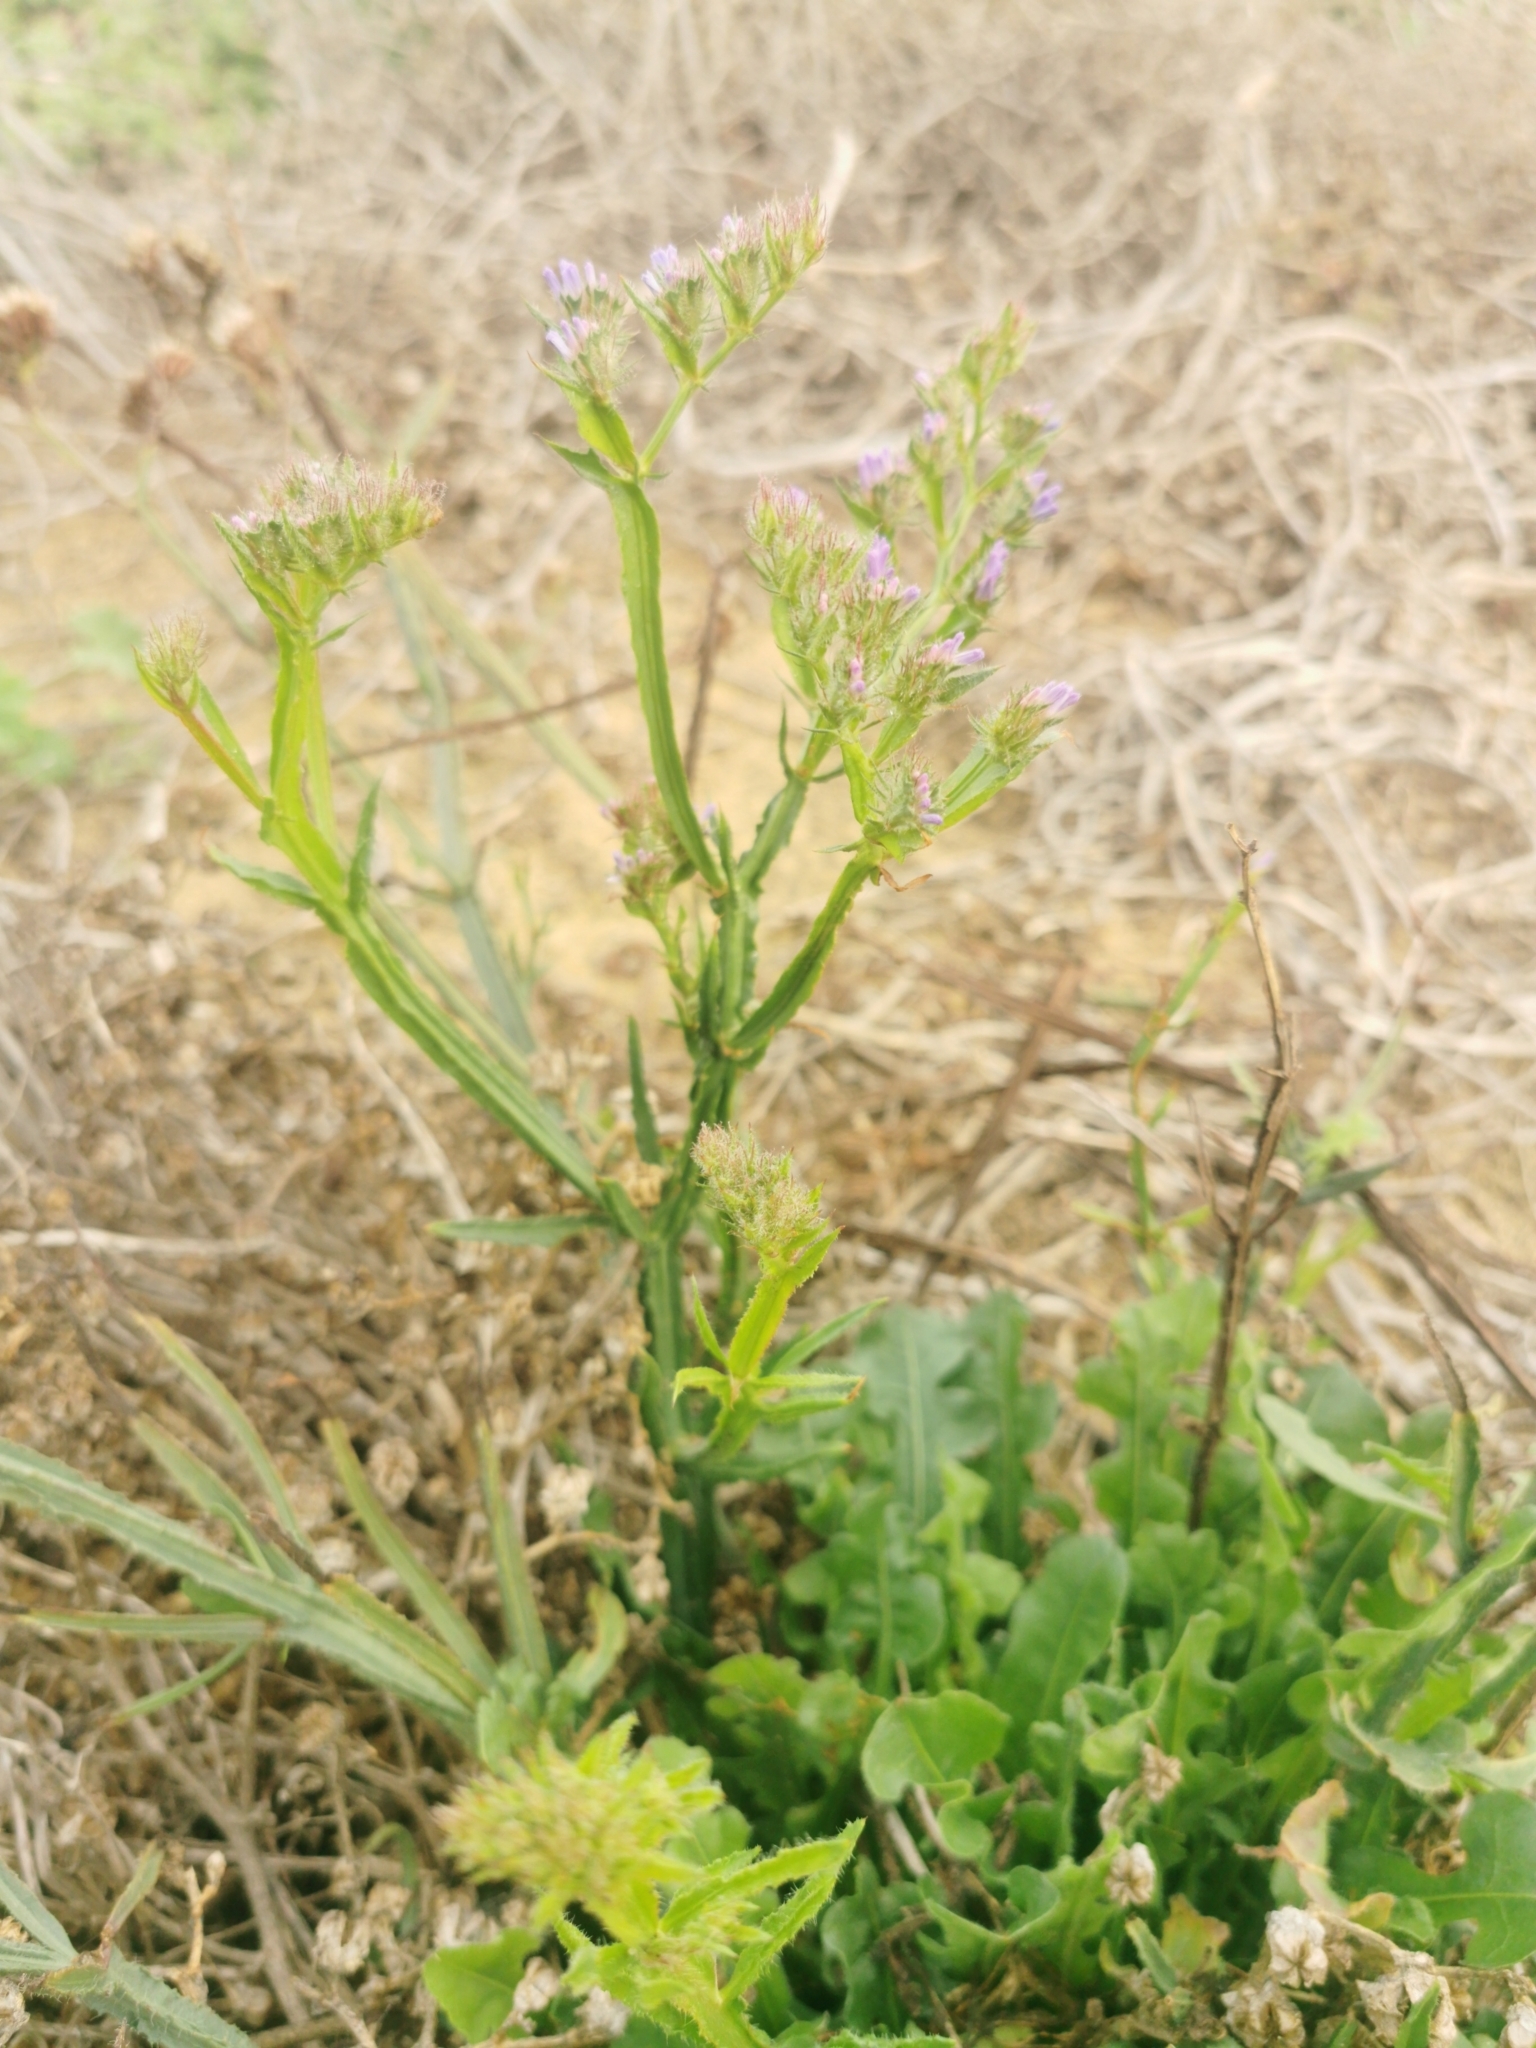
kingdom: Plantae
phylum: Tracheophyta
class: Magnoliopsida
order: Caryophyllales
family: Plumbaginaceae
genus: Limonium
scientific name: Limonium sinuatum
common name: Statice
